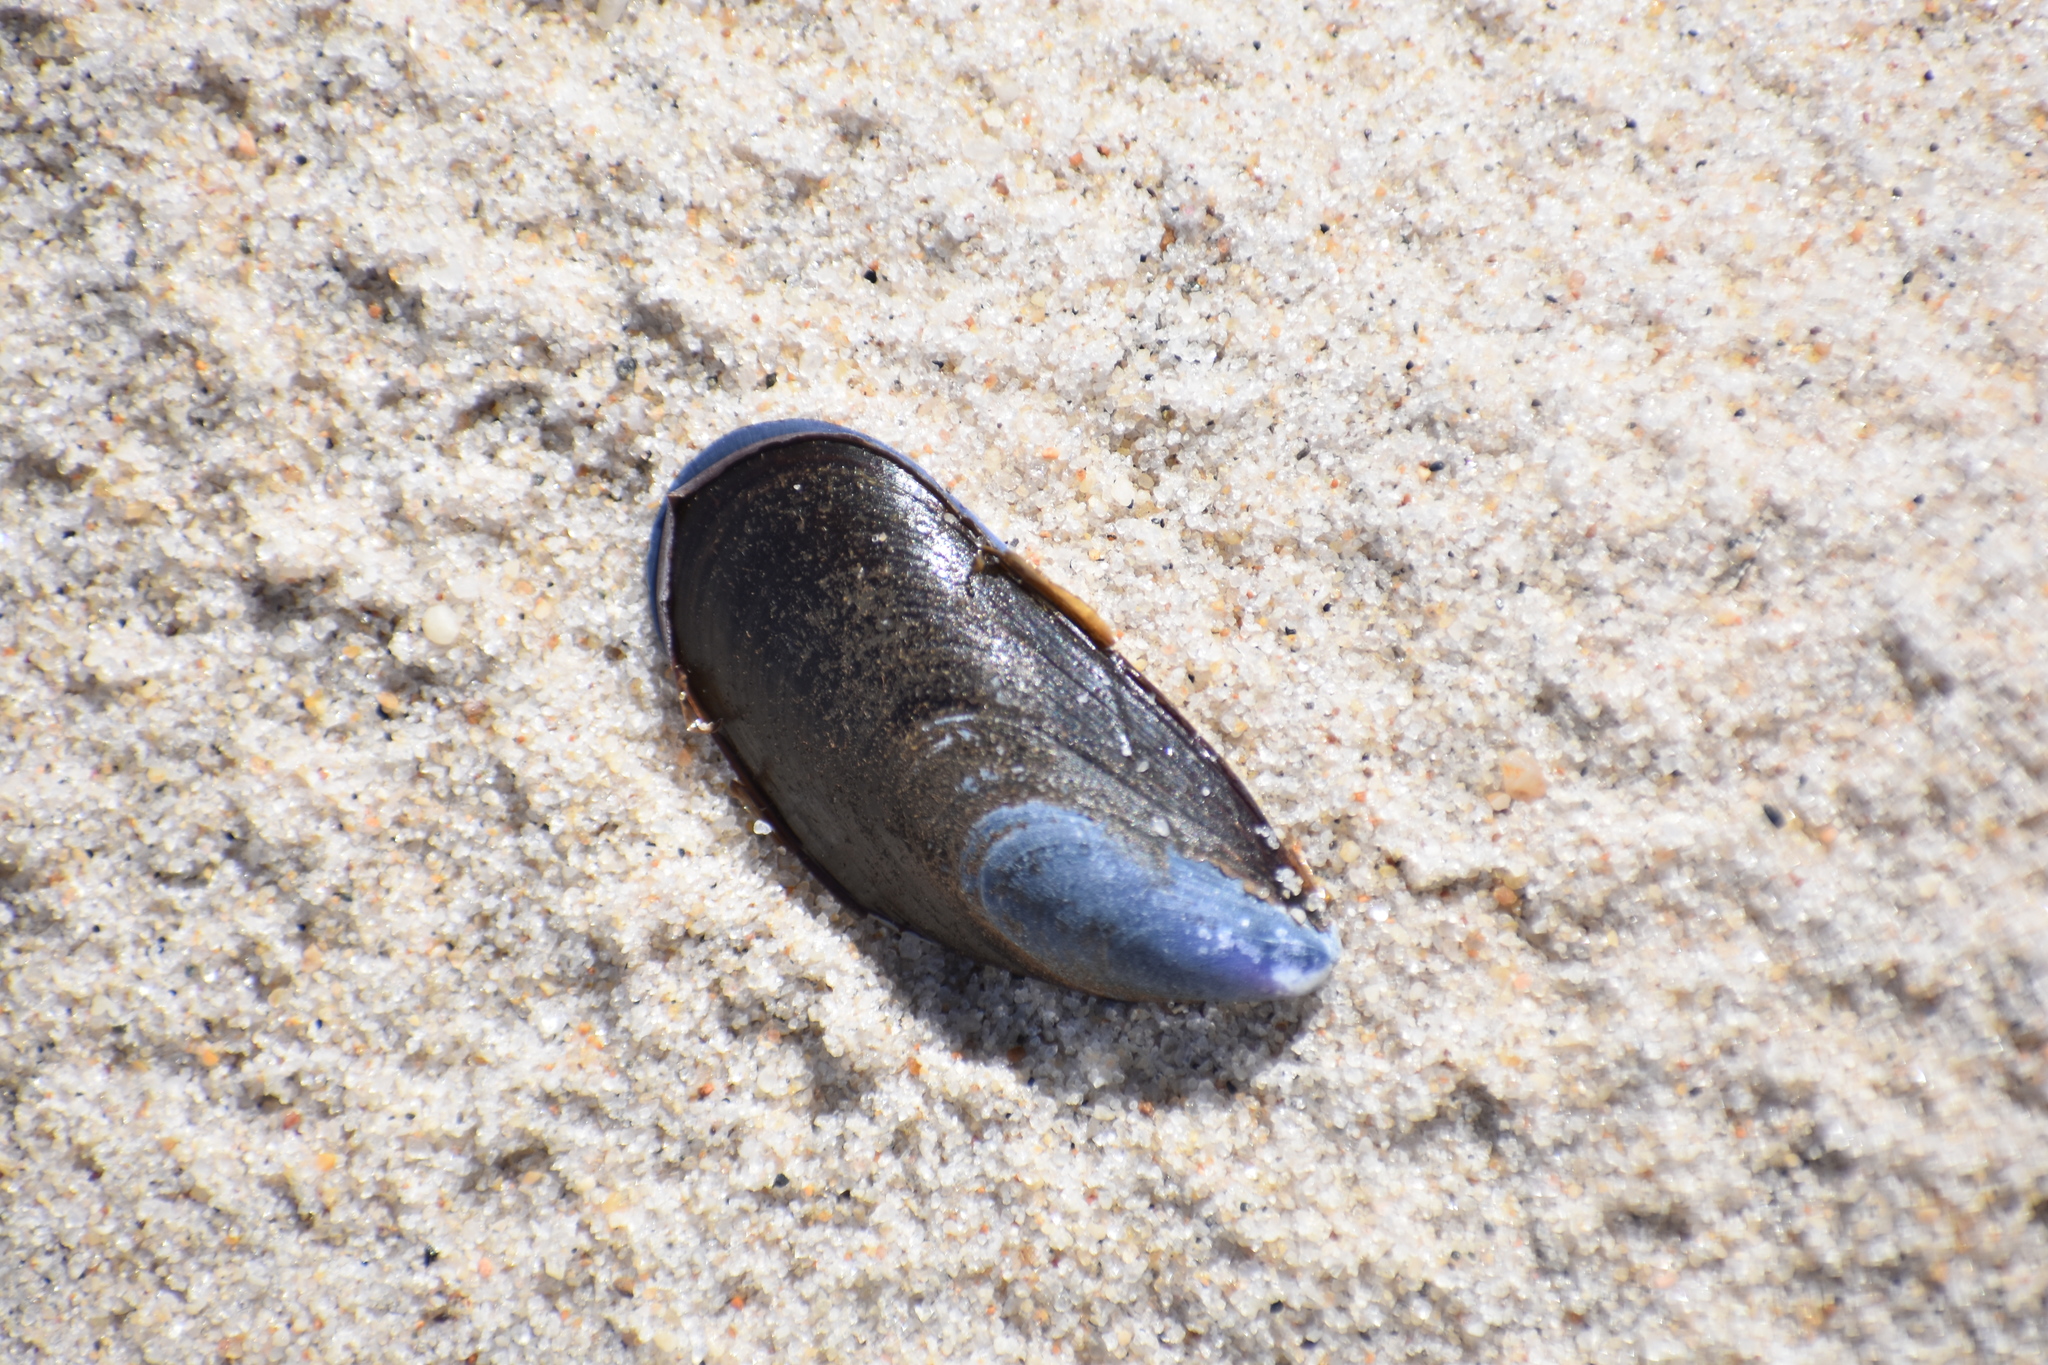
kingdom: Animalia
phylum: Mollusca
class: Bivalvia
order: Mytilida
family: Mytilidae
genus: Mytilus
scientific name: Mytilus edulis
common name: Blue mussel
